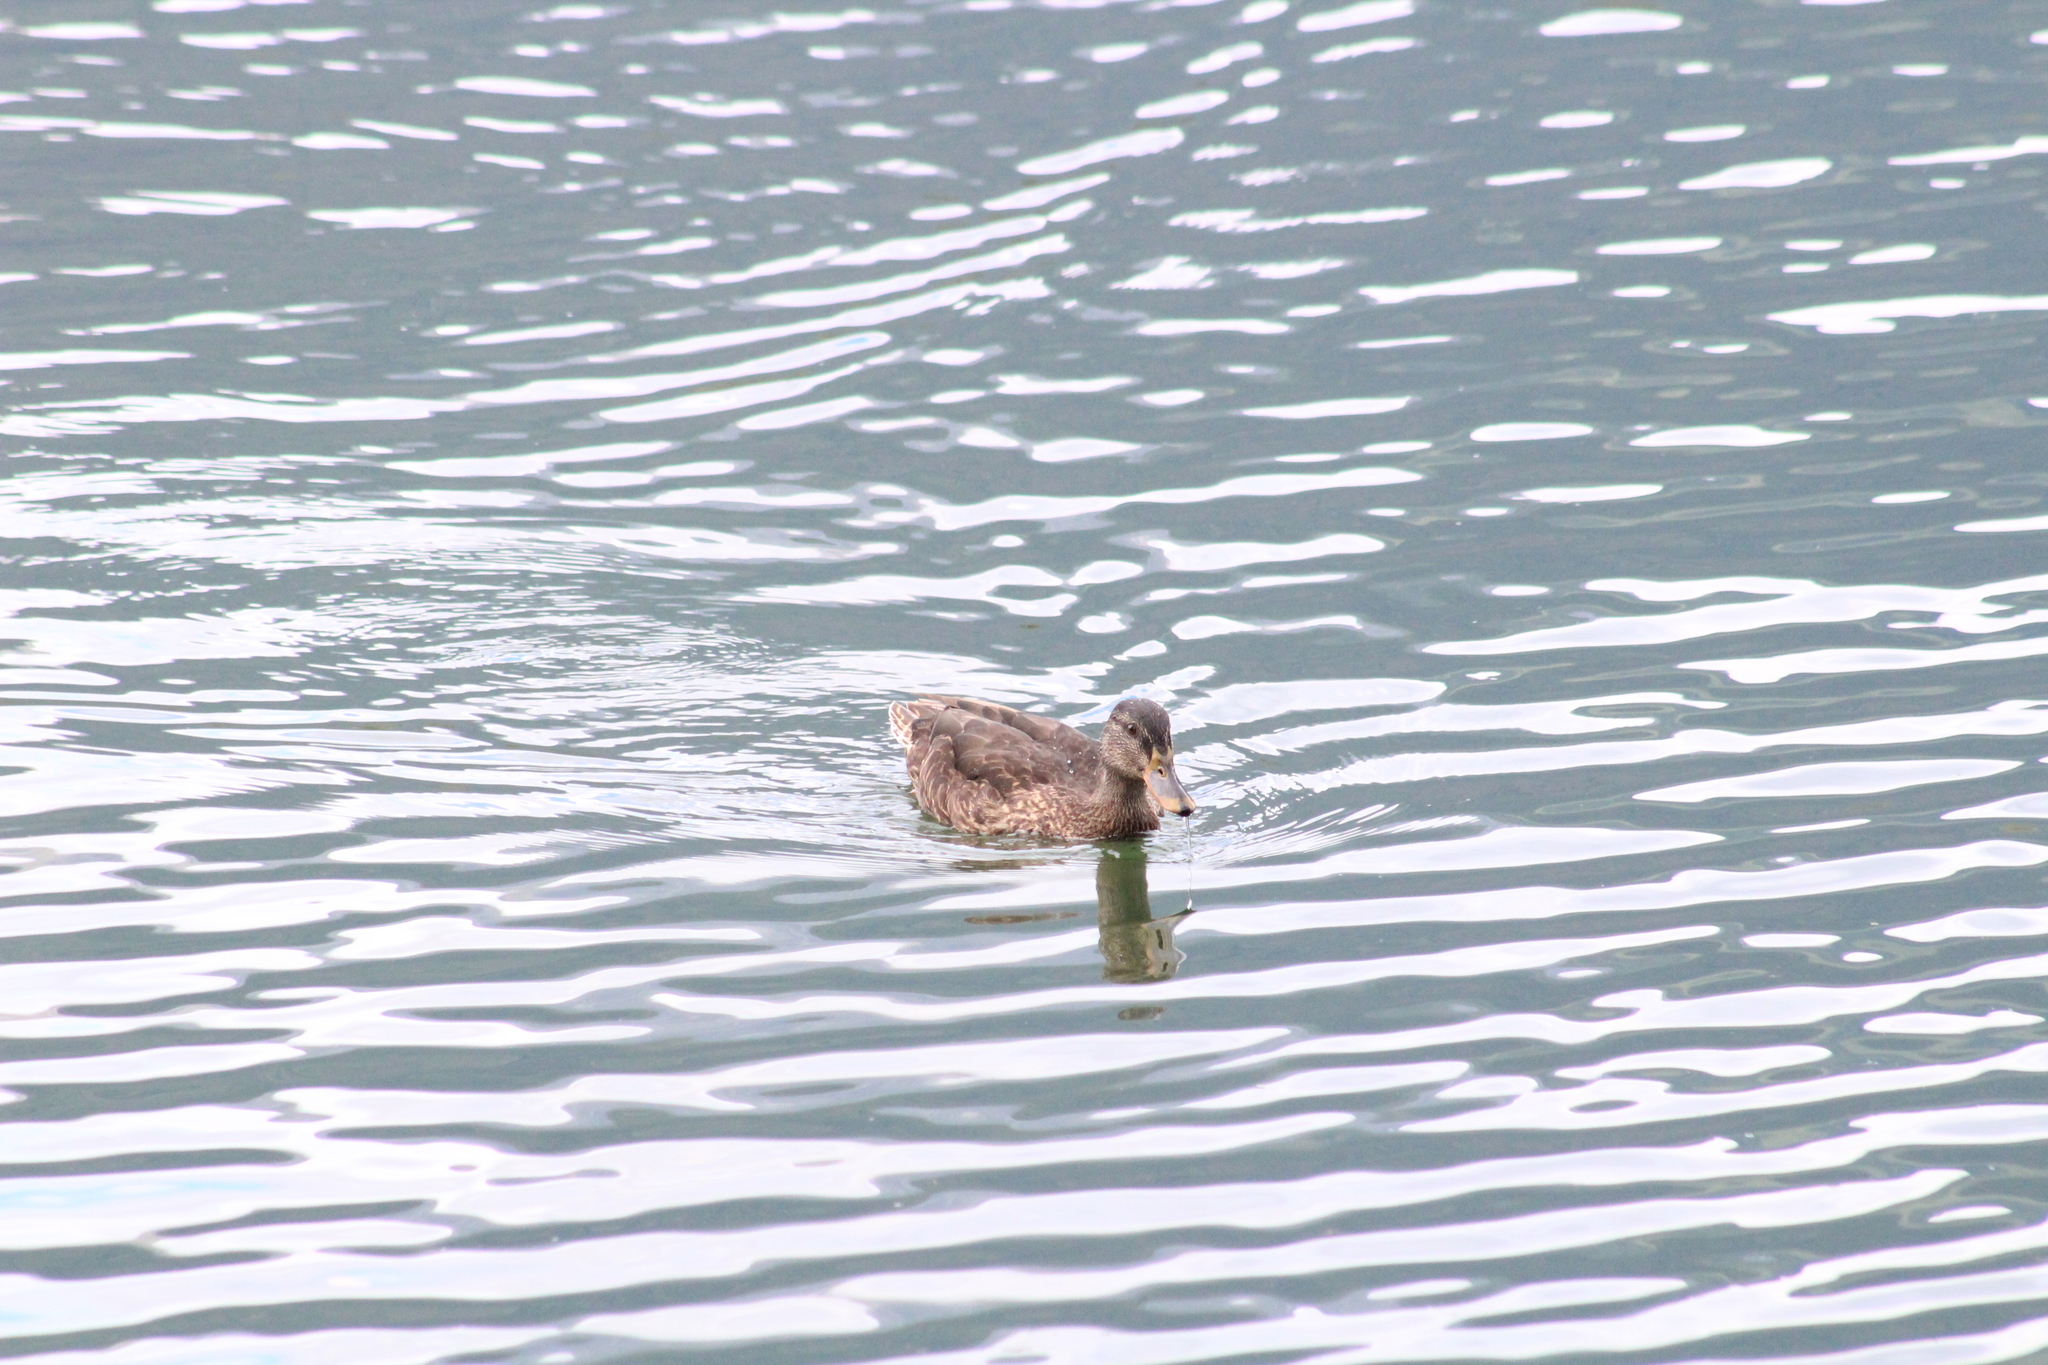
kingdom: Animalia
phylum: Chordata
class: Aves
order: Anseriformes
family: Anatidae
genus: Anas
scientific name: Anas platyrhynchos
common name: Mallard
